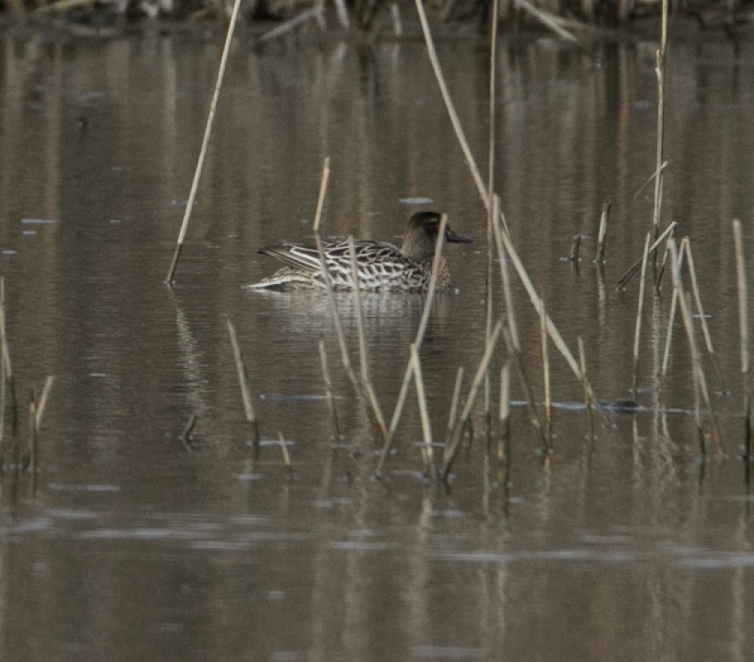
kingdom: Animalia
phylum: Chordata
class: Aves
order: Anseriformes
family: Anatidae
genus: Spatula
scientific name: Spatula querquedula
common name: Garganey
